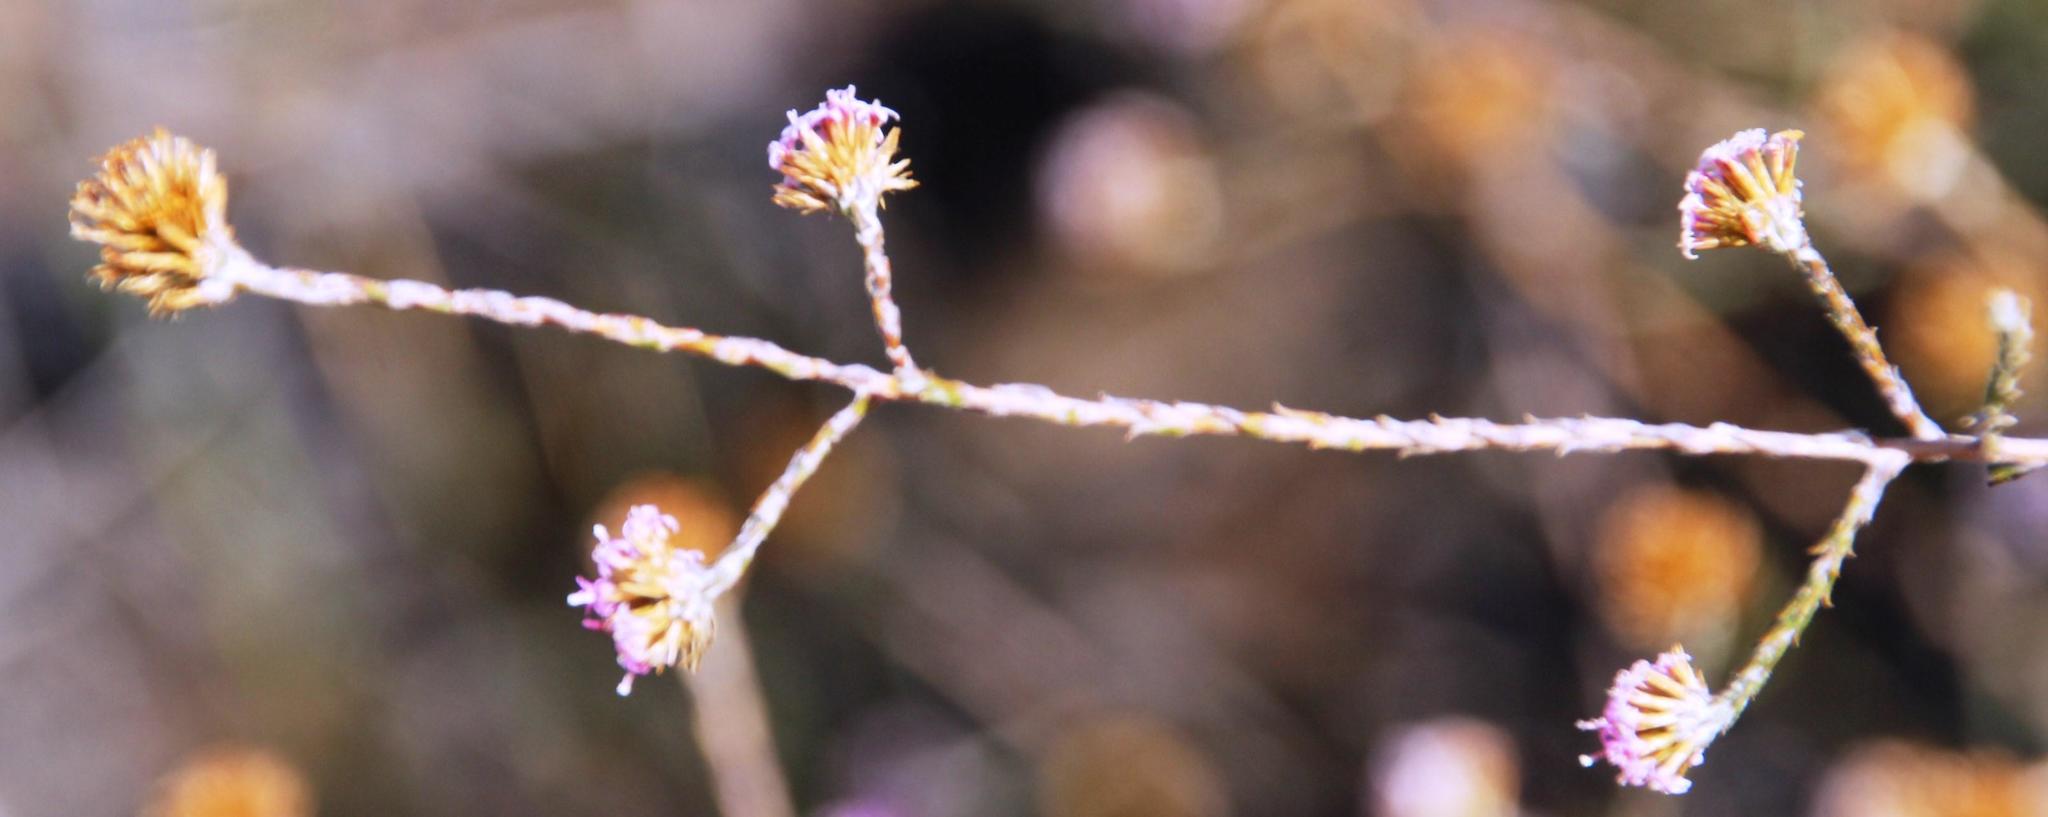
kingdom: Plantae
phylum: Tracheophyta
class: Magnoliopsida
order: Asterales
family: Asteraceae
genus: Stoebe
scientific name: Stoebe fusca
